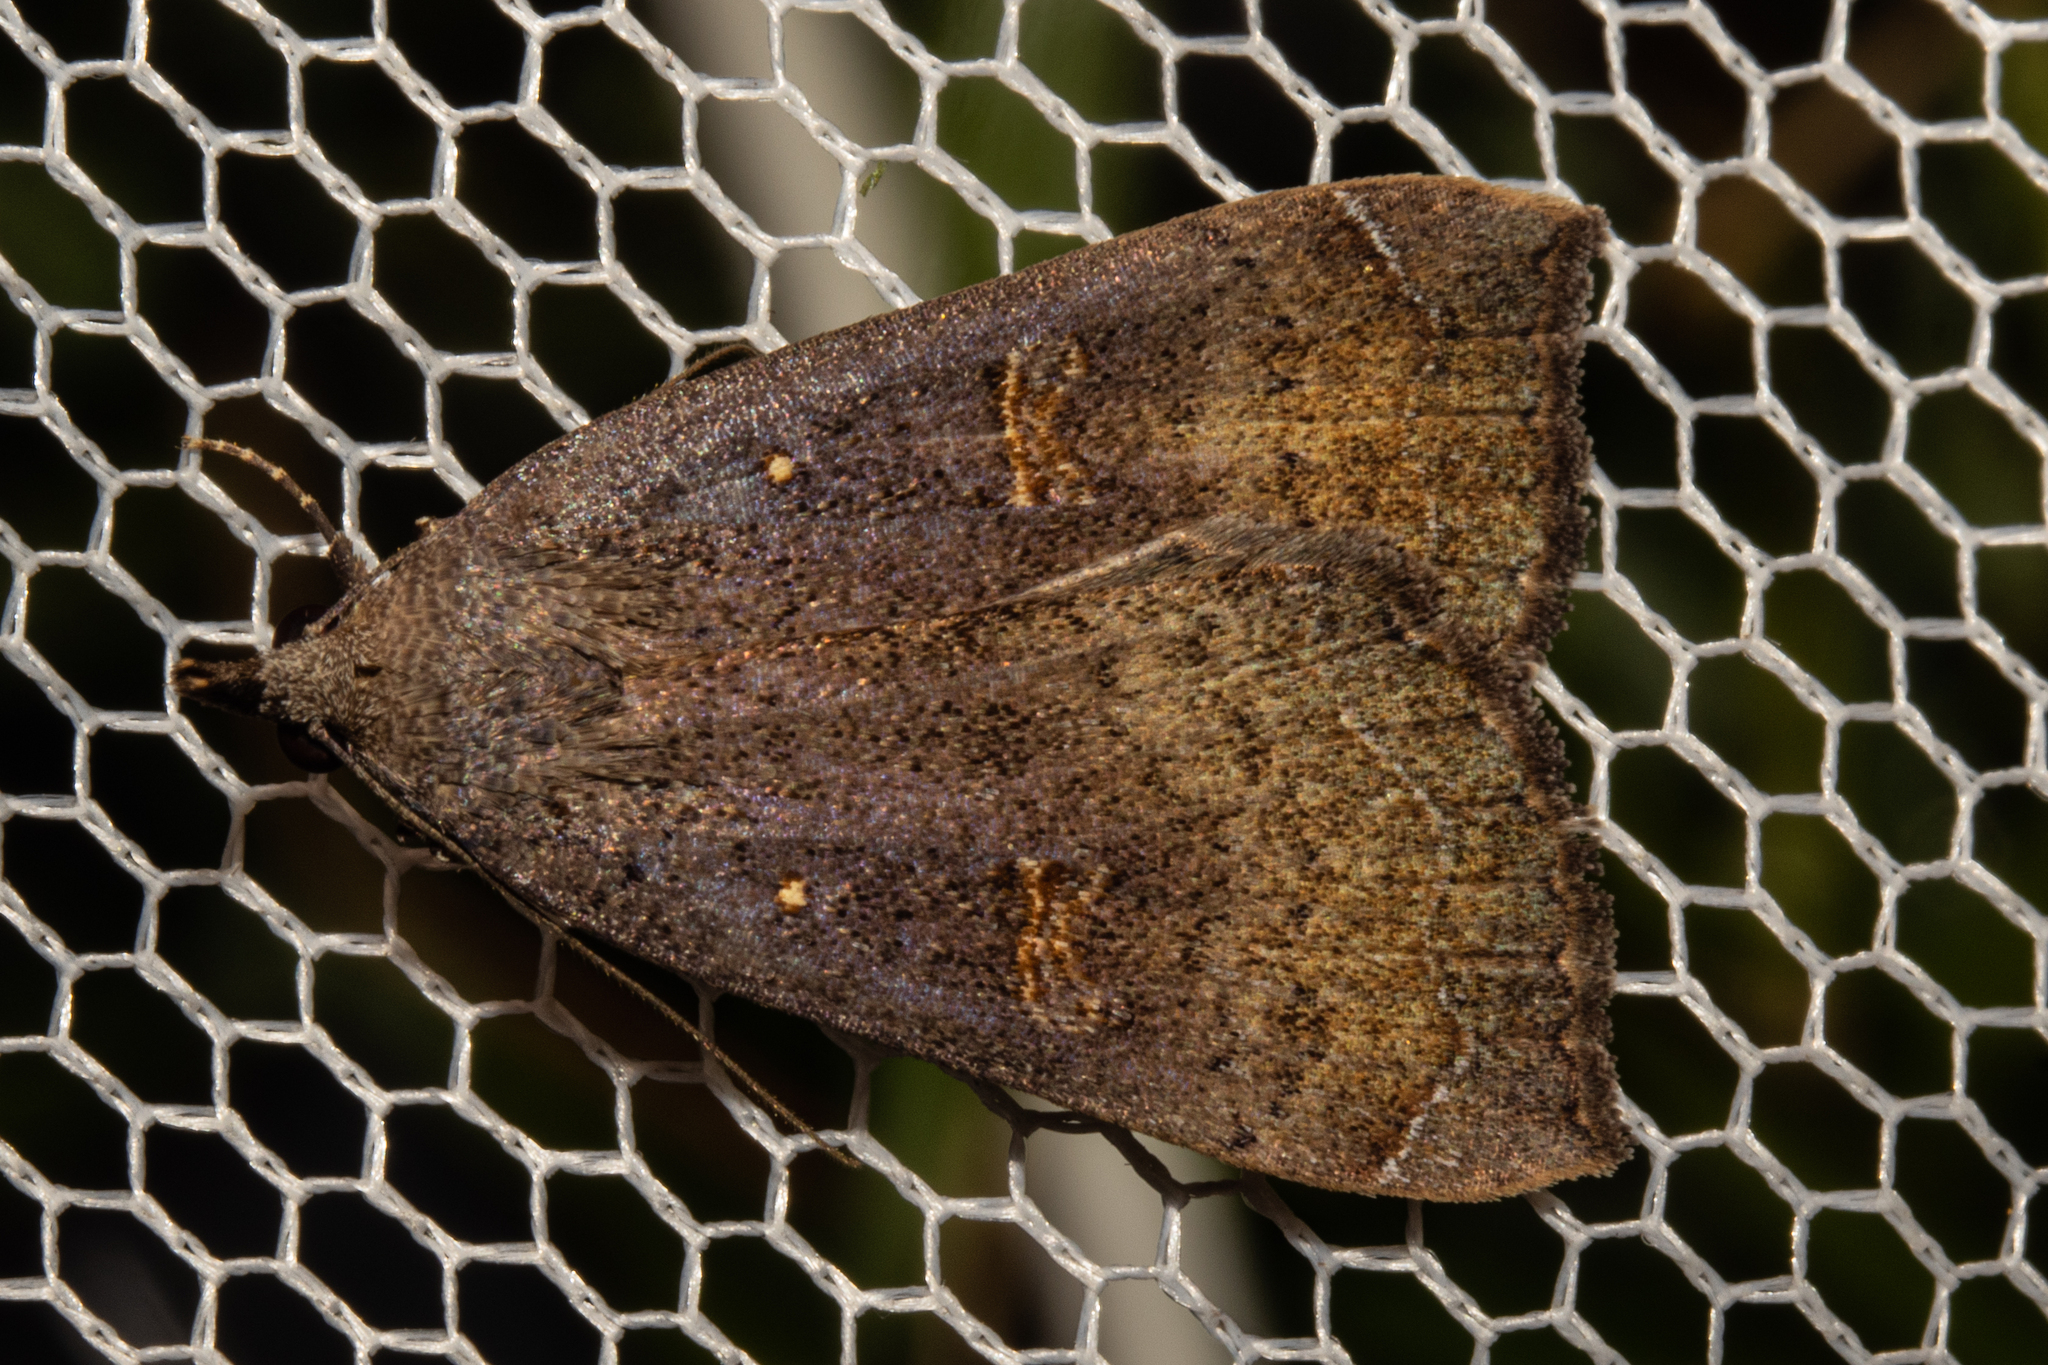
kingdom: Animalia
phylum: Arthropoda
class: Insecta
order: Lepidoptera
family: Erebidae
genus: Rhapsa
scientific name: Rhapsa scotosialis
